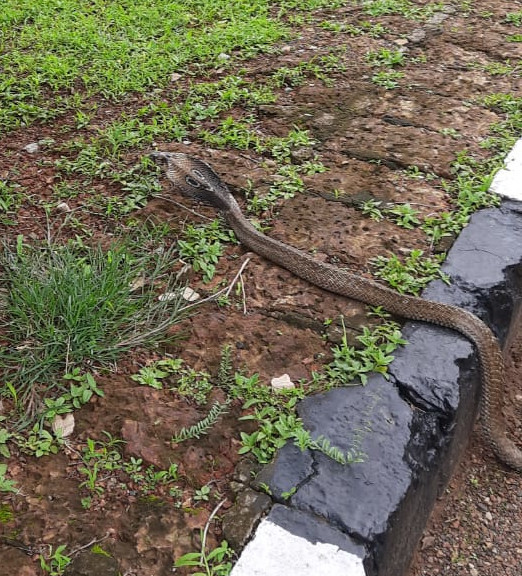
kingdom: Animalia
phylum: Chordata
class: Squamata
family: Elapidae
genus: Naja
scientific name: Naja naja
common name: Indian cobra
